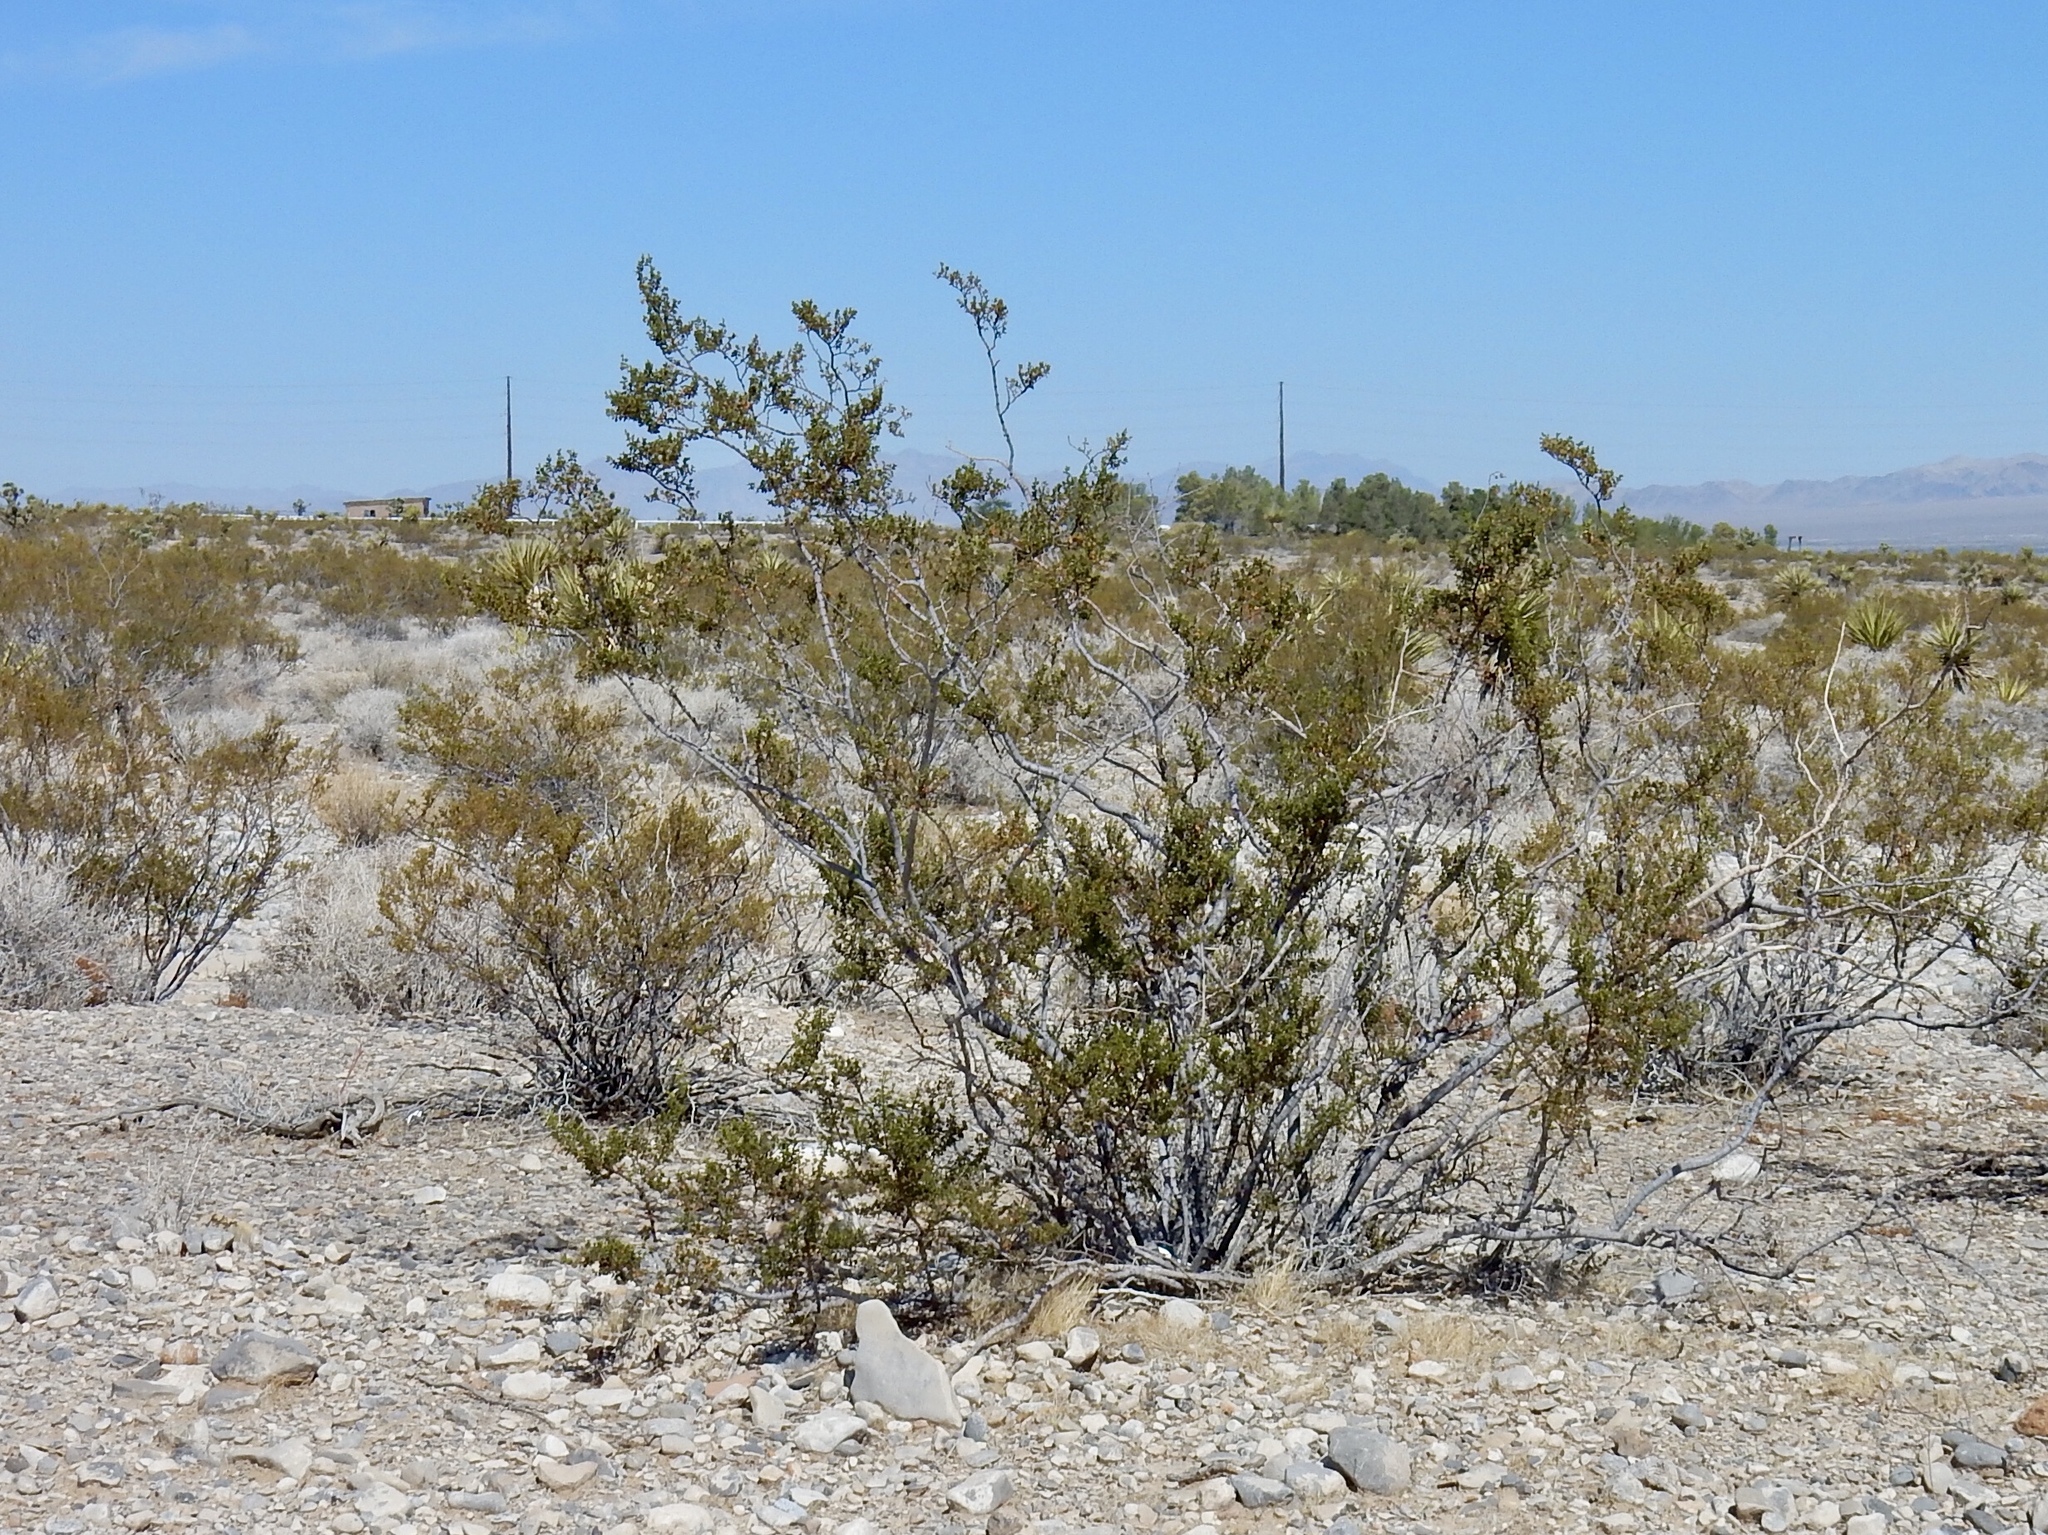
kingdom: Plantae
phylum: Tracheophyta
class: Magnoliopsida
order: Zygophyllales
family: Zygophyllaceae
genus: Larrea
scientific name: Larrea tridentata
